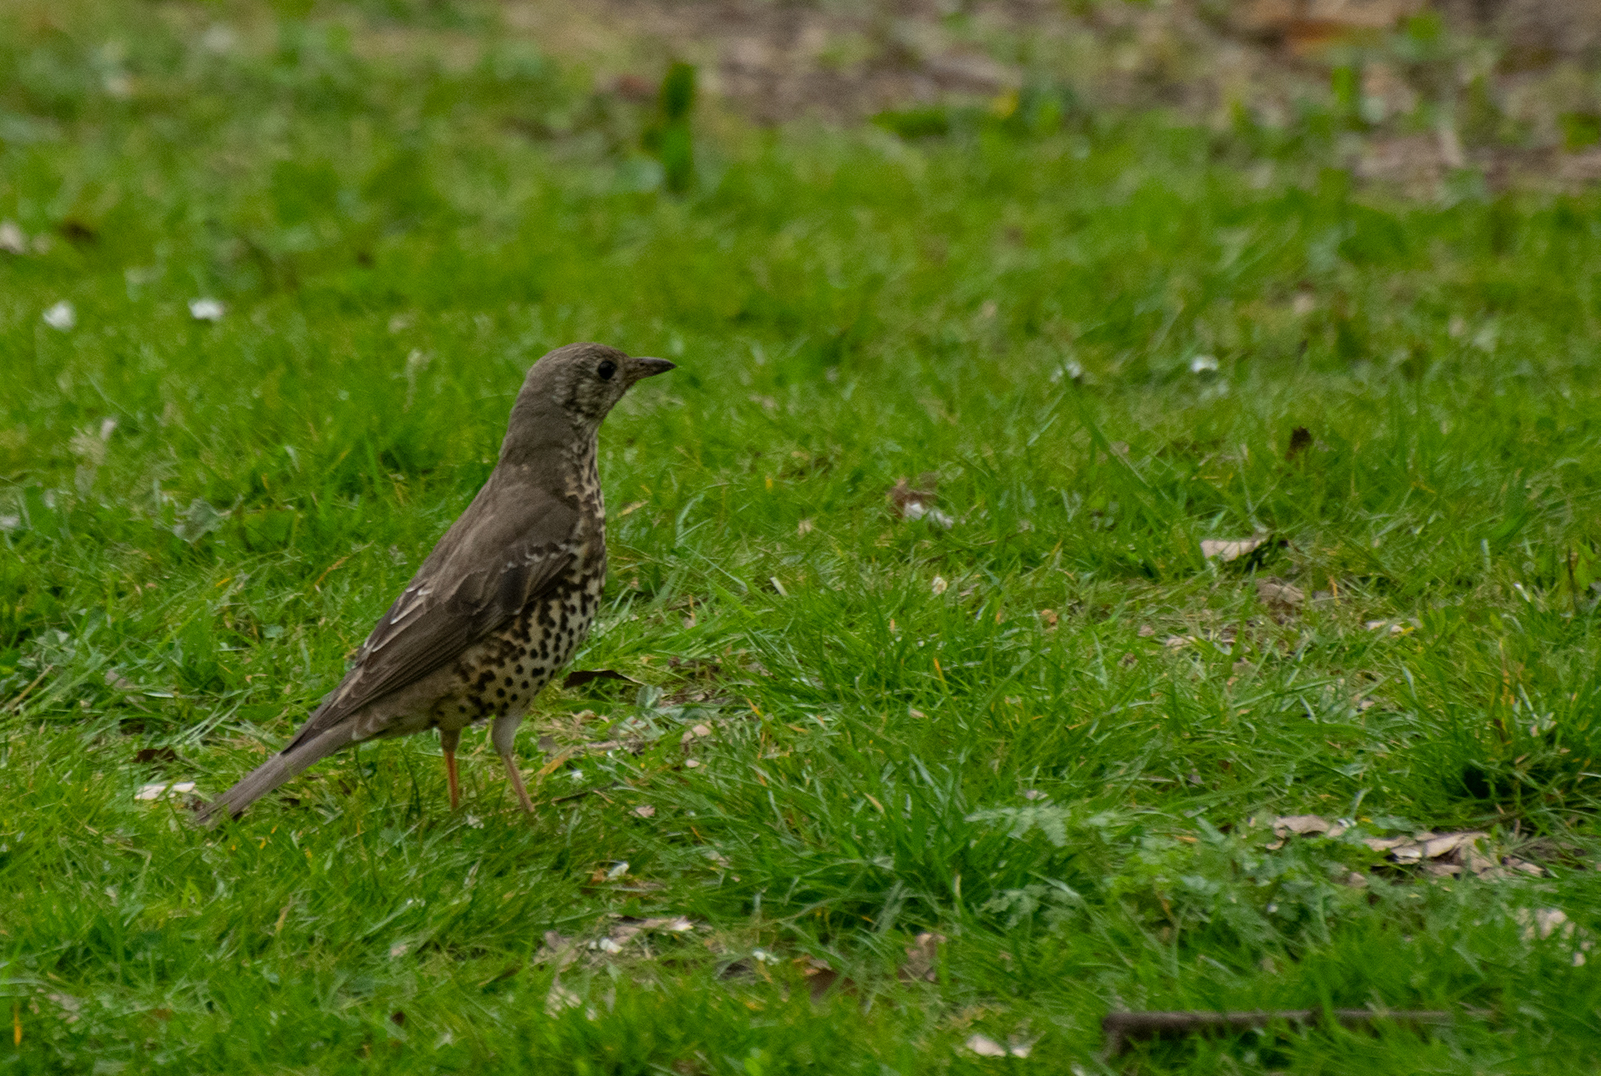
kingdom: Animalia
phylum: Chordata
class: Aves
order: Passeriformes
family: Turdidae
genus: Turdus
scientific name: Turdus viscivorus
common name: Mistle thrush
